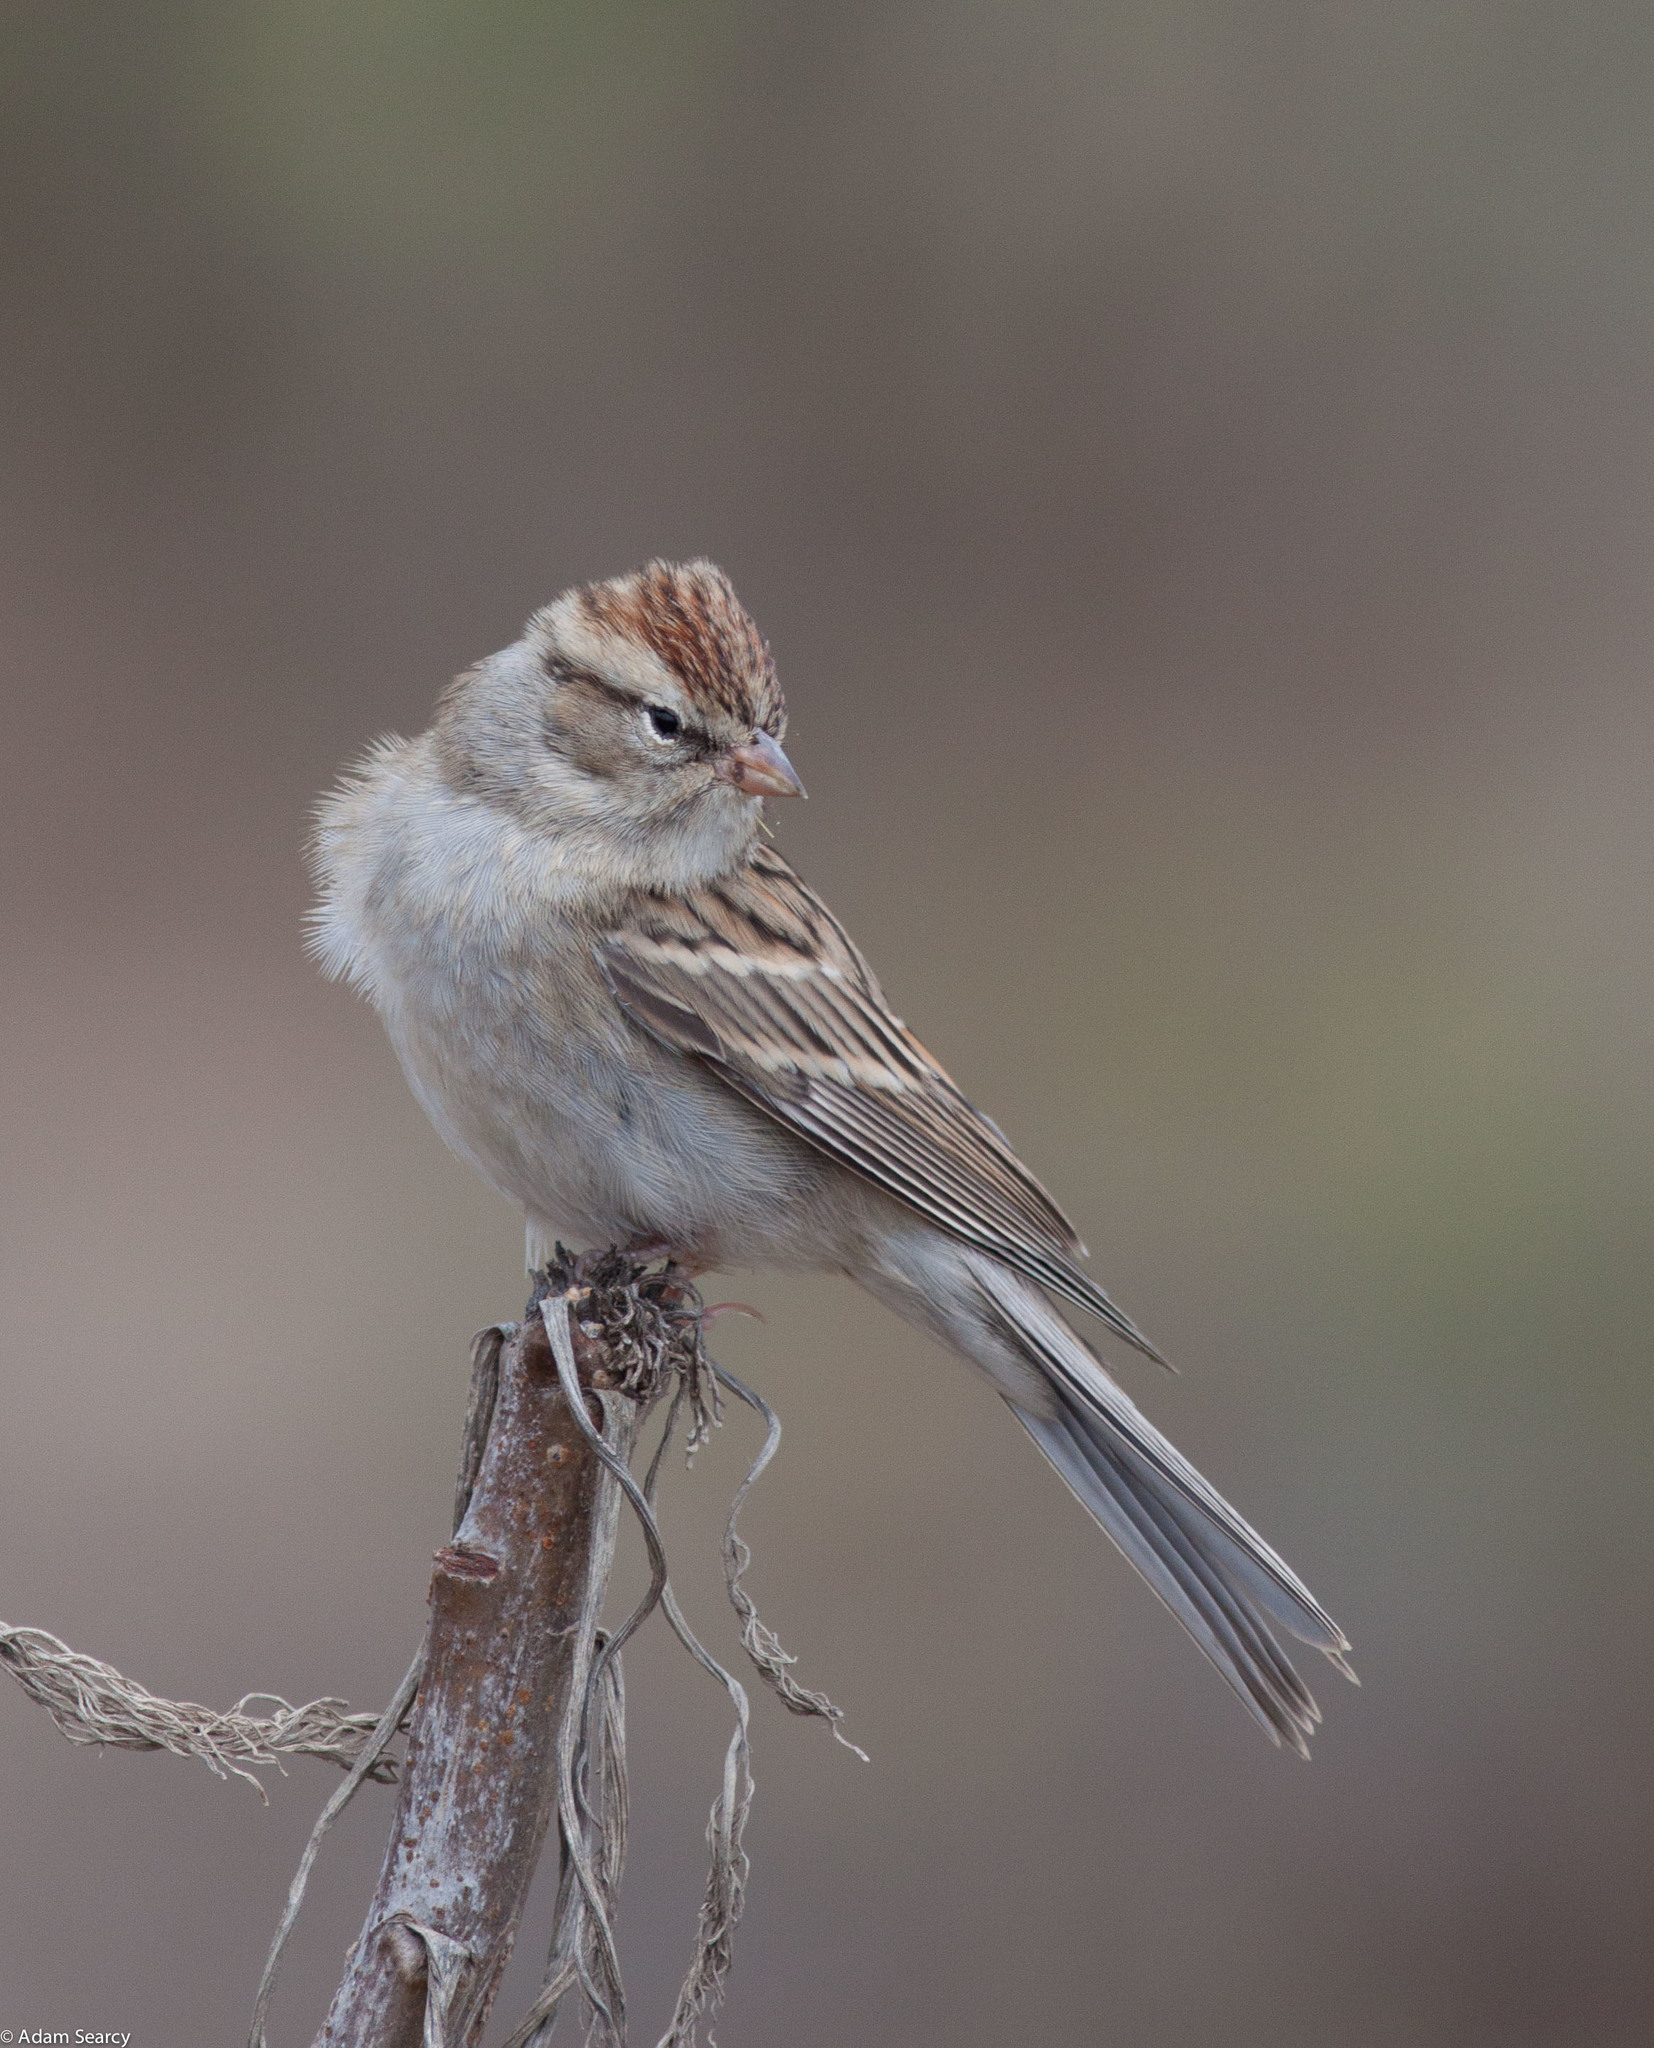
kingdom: Animalia
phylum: Chordata
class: Aves
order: Passeriformes
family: Passerellidae
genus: Spizella
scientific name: Spizella passerina
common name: Chipping sparrow
